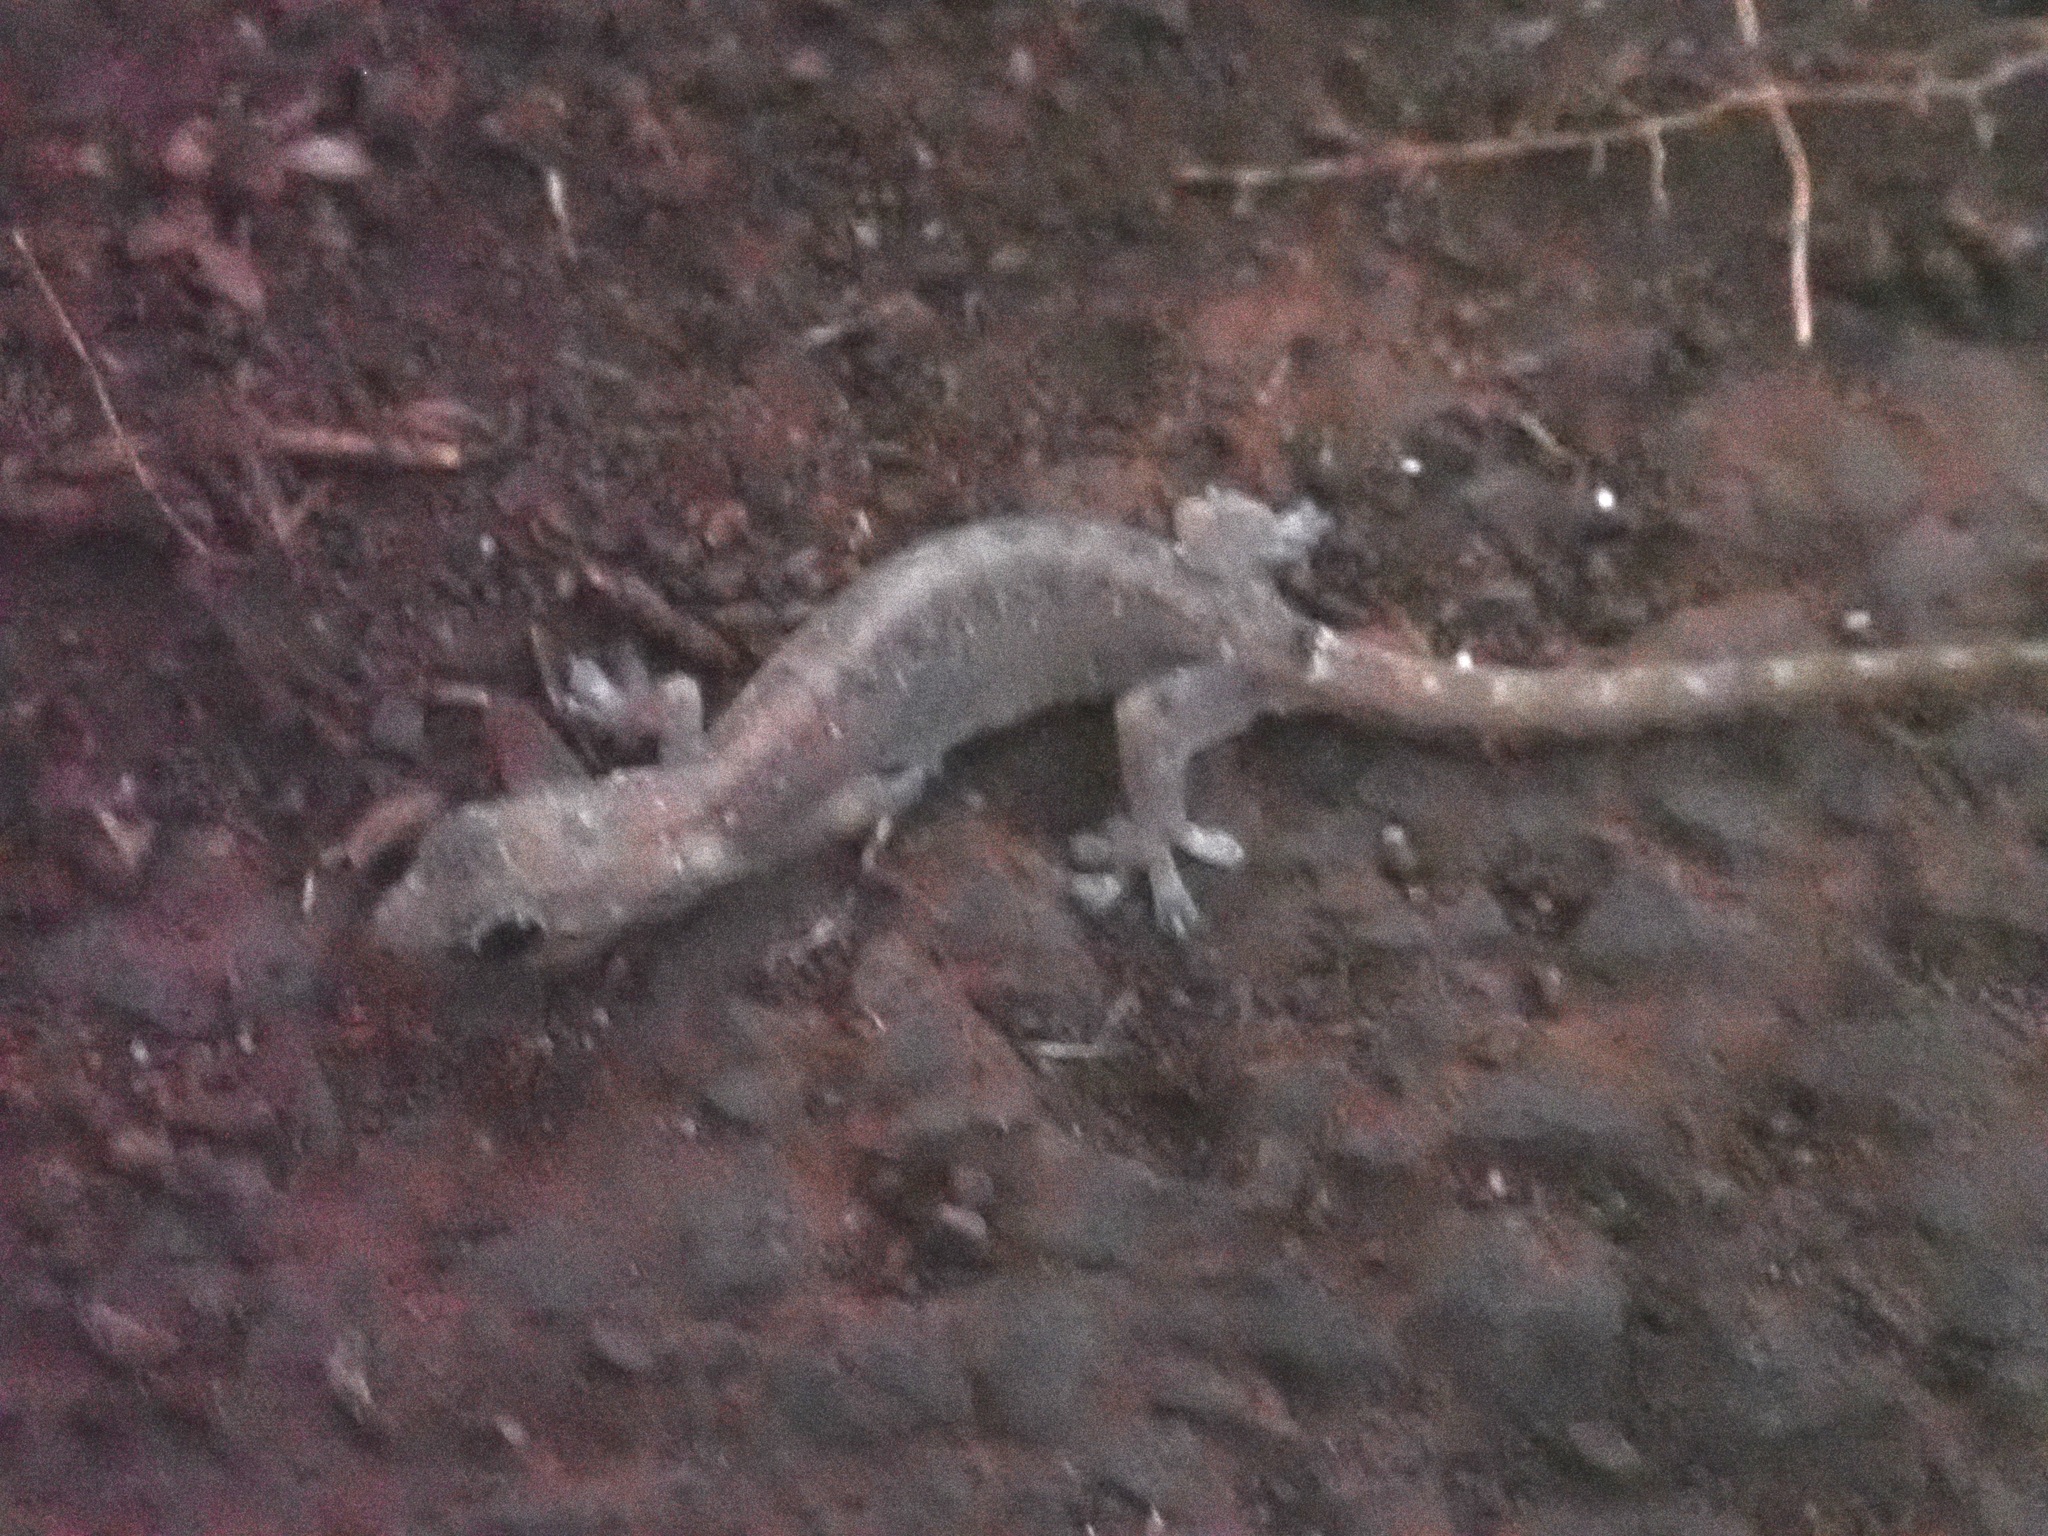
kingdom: Animalia
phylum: Chordata
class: Squamata
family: Gekkonidae
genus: Hemiphyllodactylus
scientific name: Hemiphyllodactylus typus
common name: Common dwarf gecko
